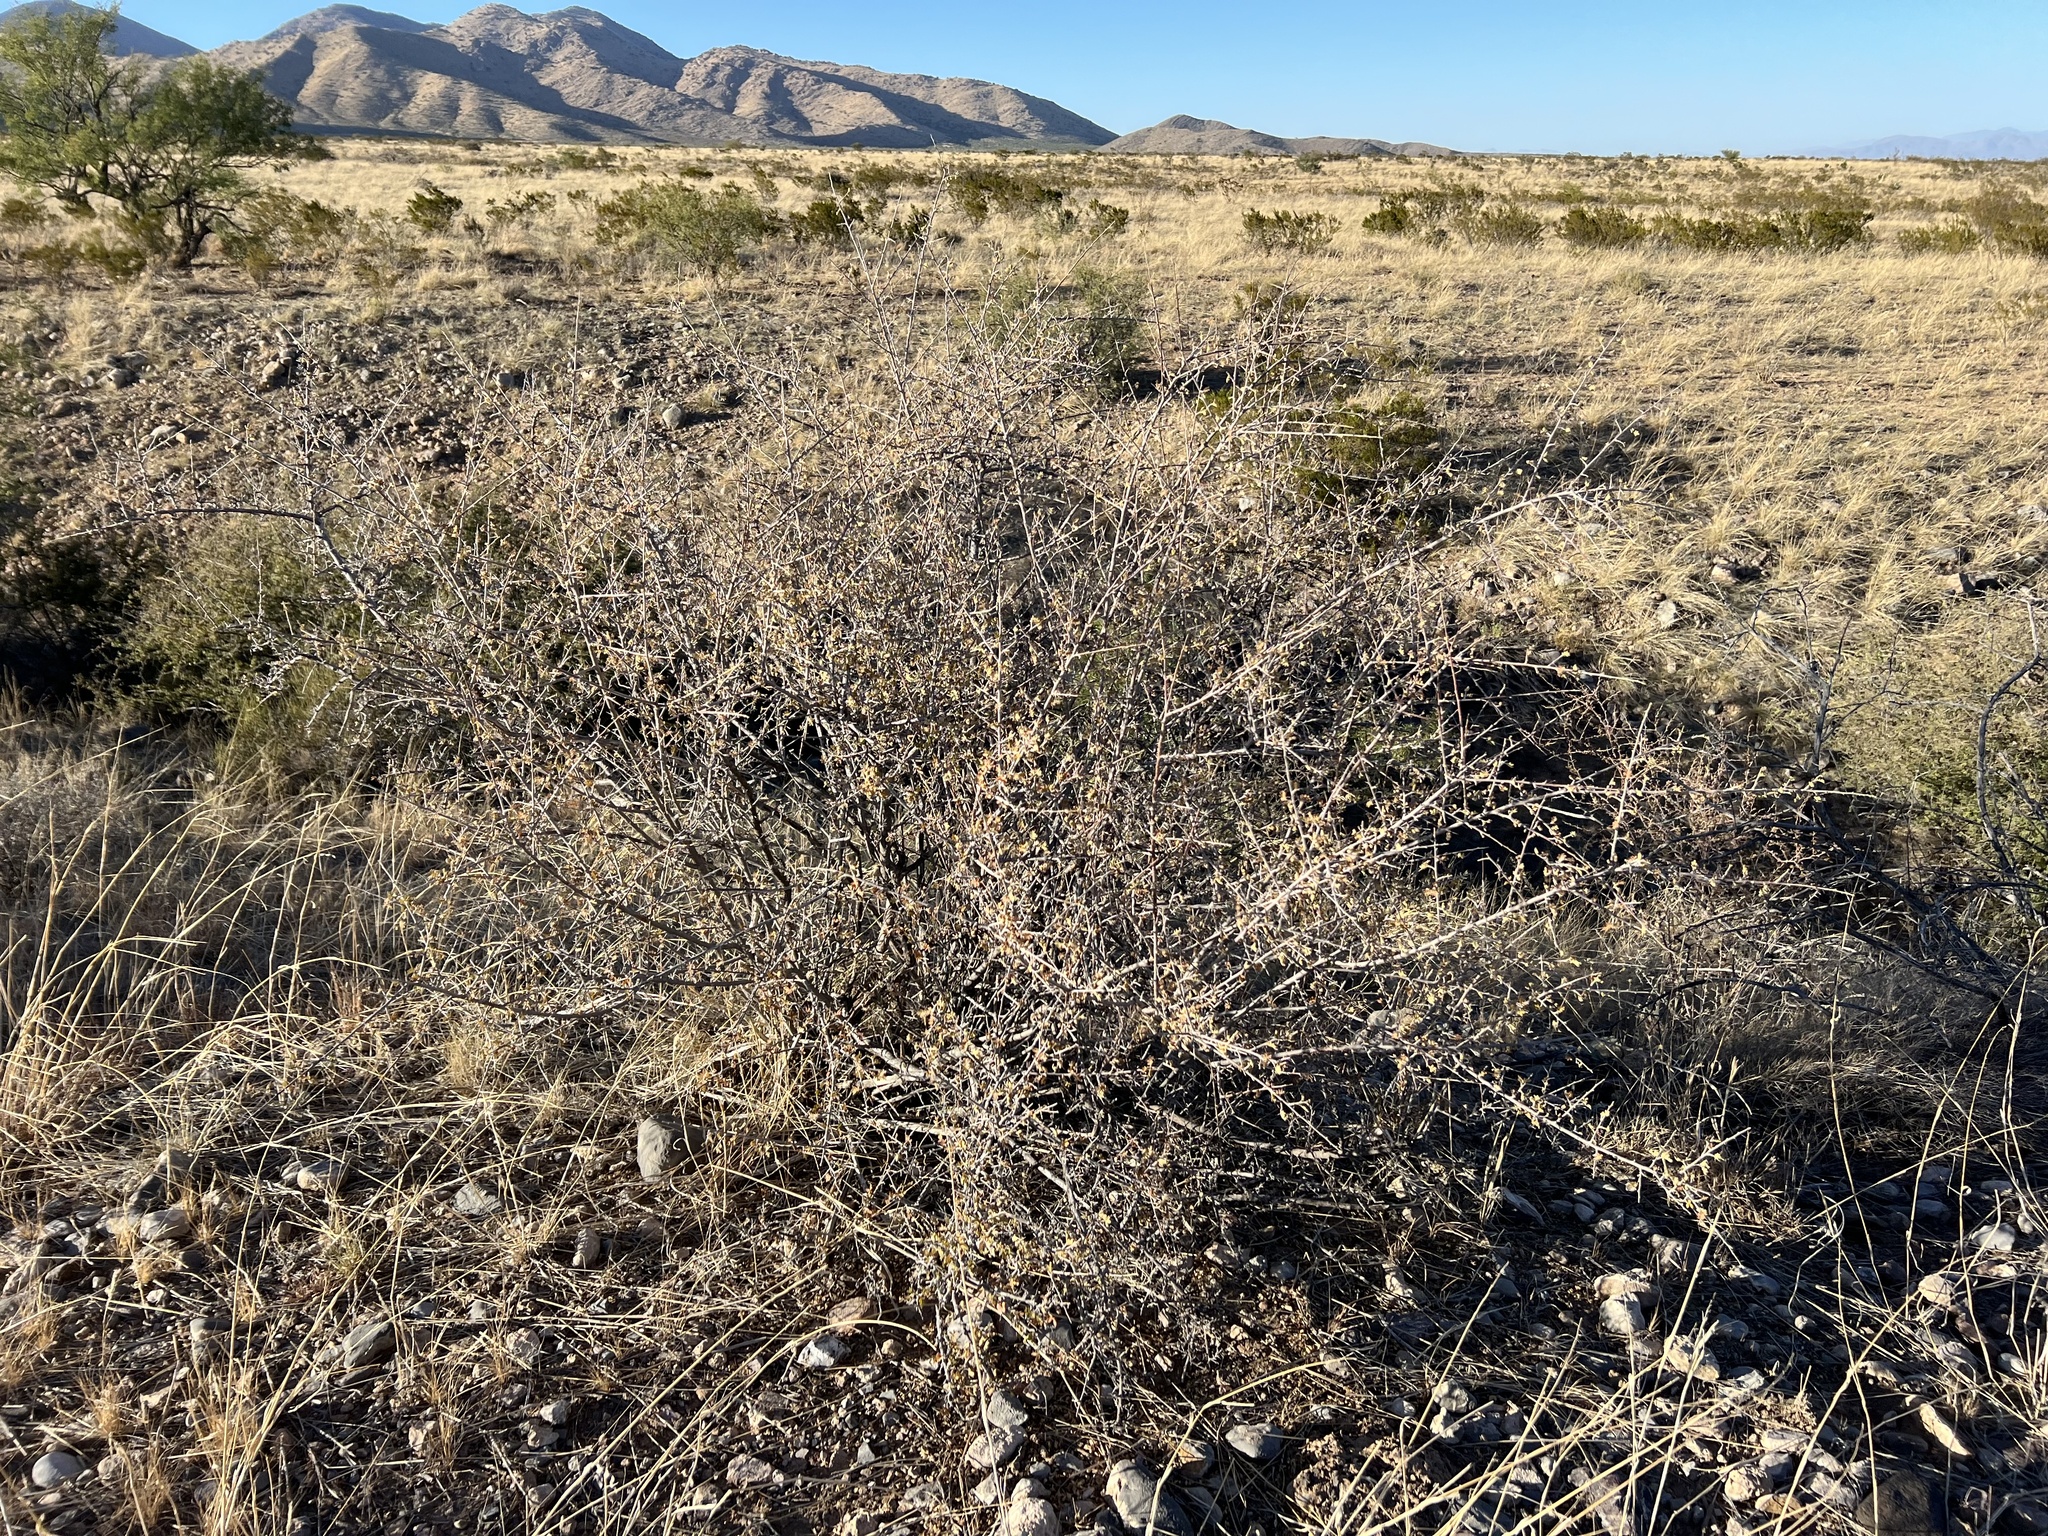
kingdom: Plantae
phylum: Tracheophyta
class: Magnoliopsida
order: Sapindales
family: Anacardiaceae
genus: Rhus
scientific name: Rhus microphylla
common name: Desert sumac
